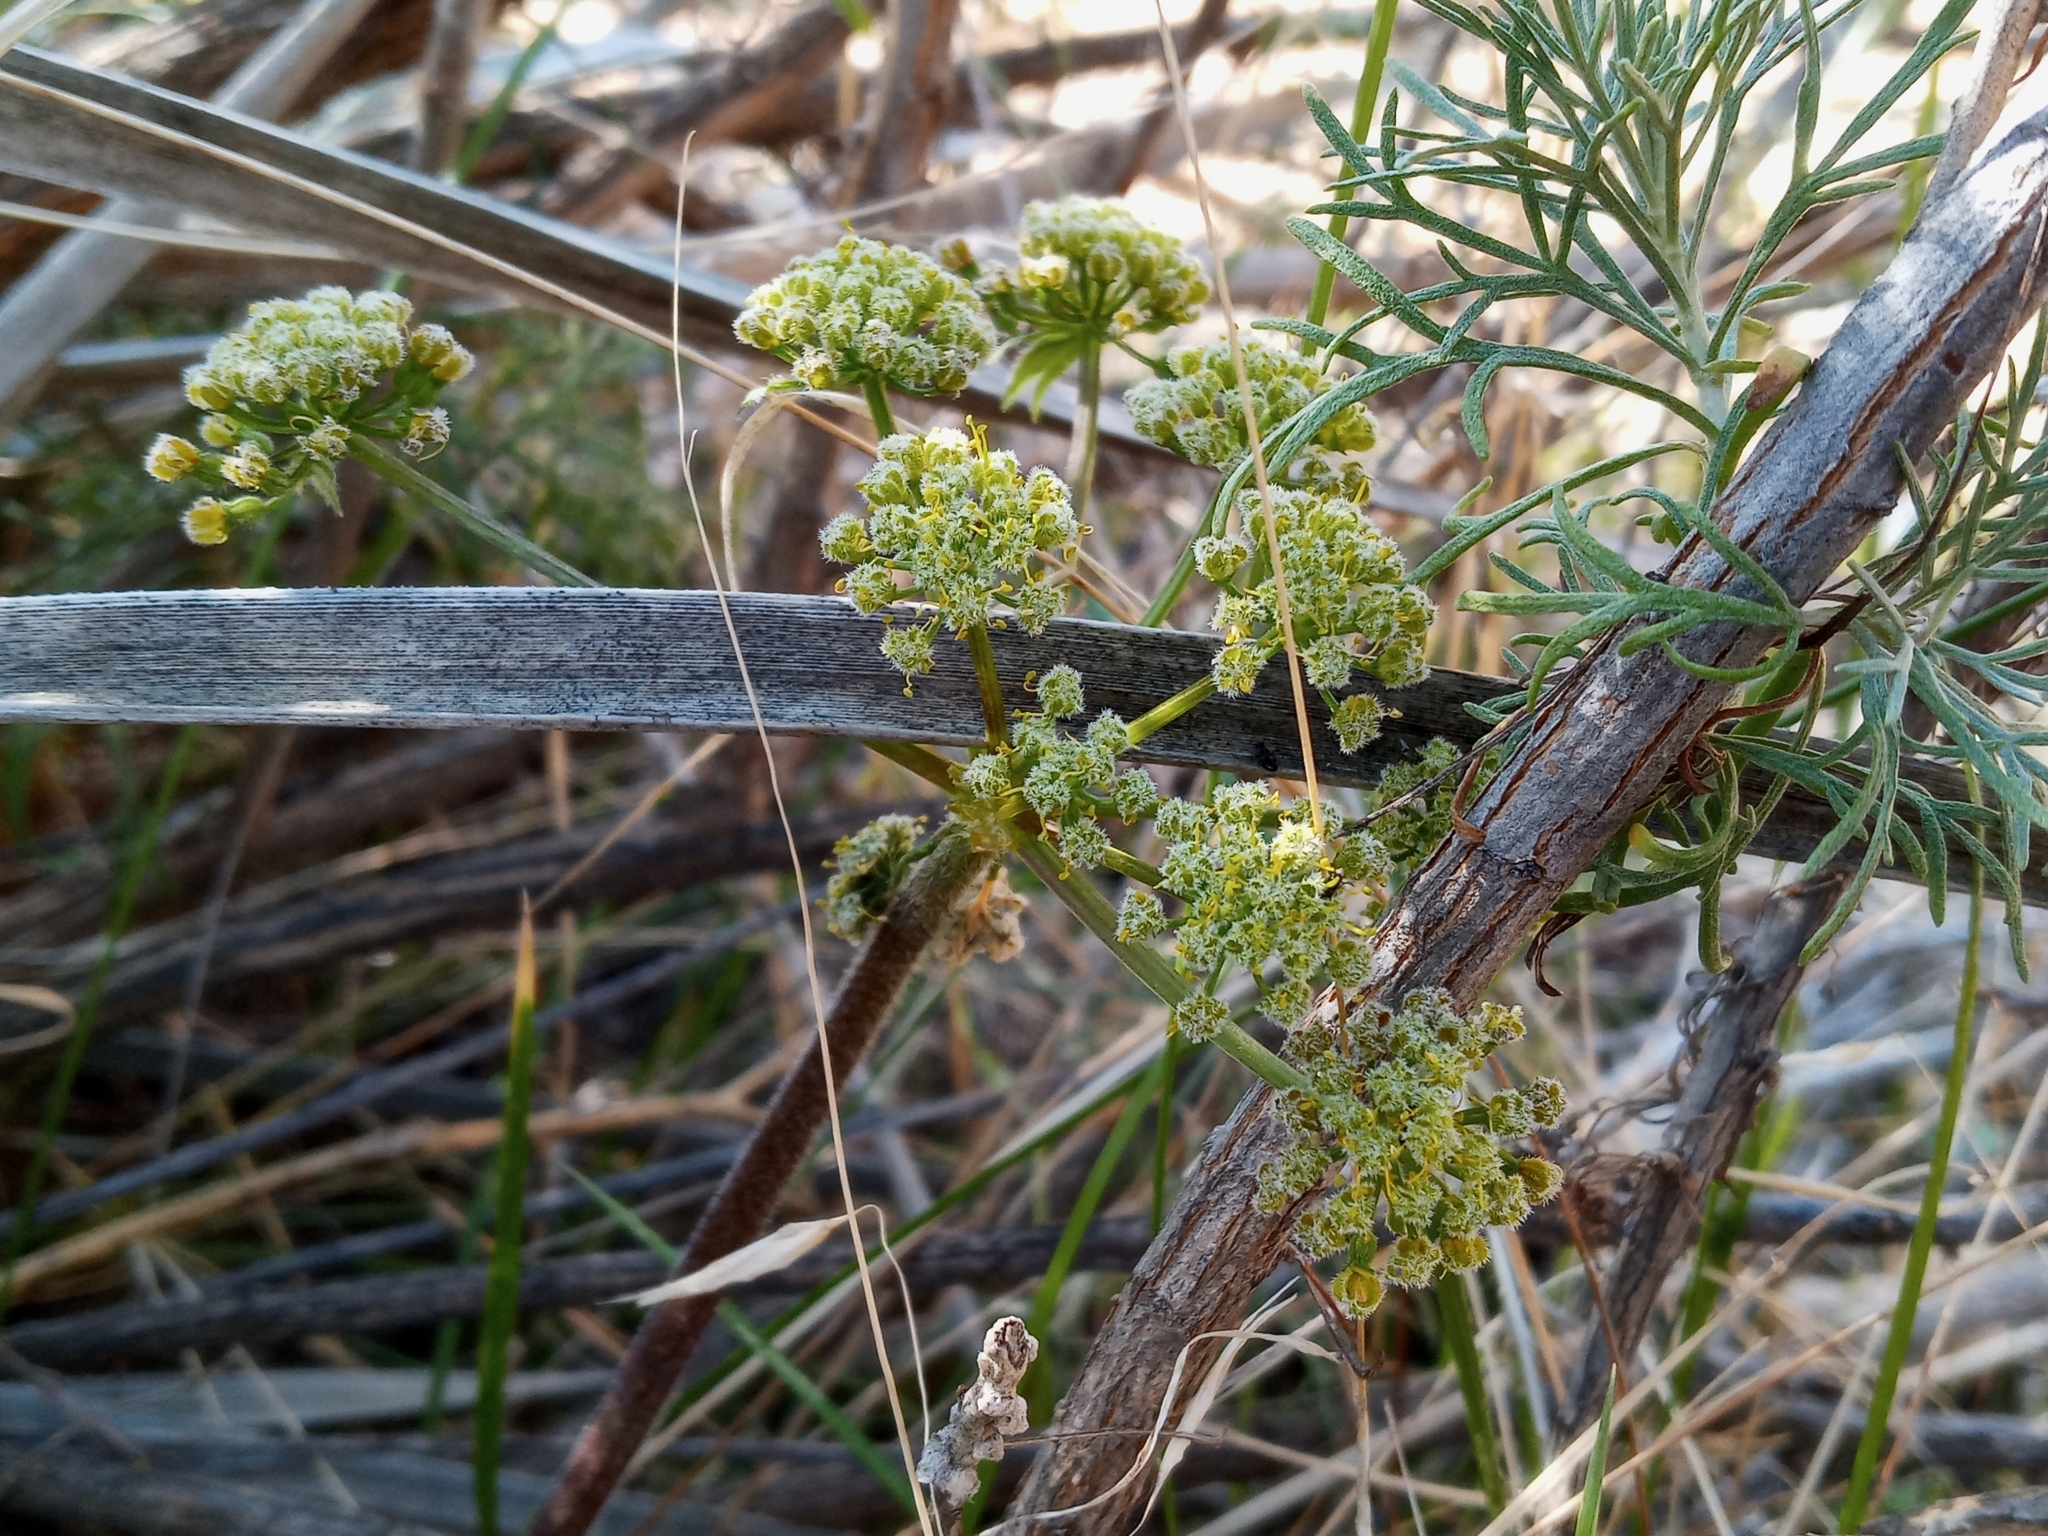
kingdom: Plantae
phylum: Tracheophyta
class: Magnoliopsida
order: Apiales
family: Apiaceae
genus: Lomatium
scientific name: Lomatium dasycarpum
